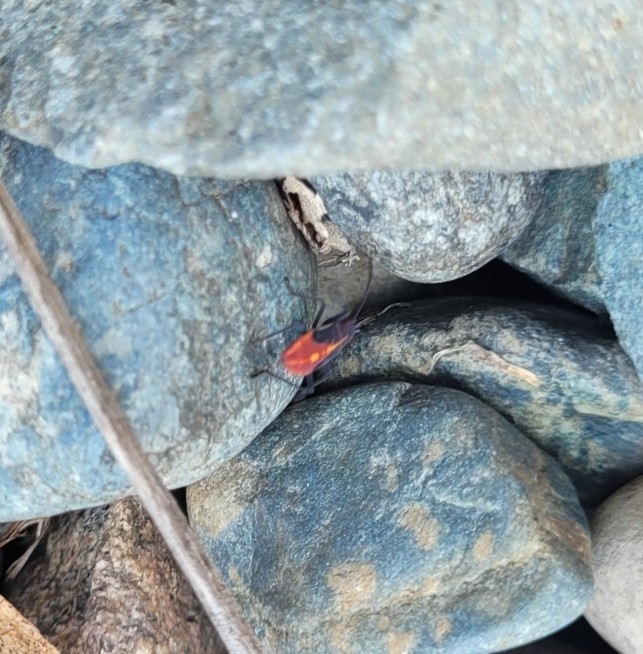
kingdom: Animalia
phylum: Arthropoda
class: Insecta
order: Hemiptera
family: Rhopalidae
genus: Boisea
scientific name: Boisea trivittata
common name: Boxelder bug
